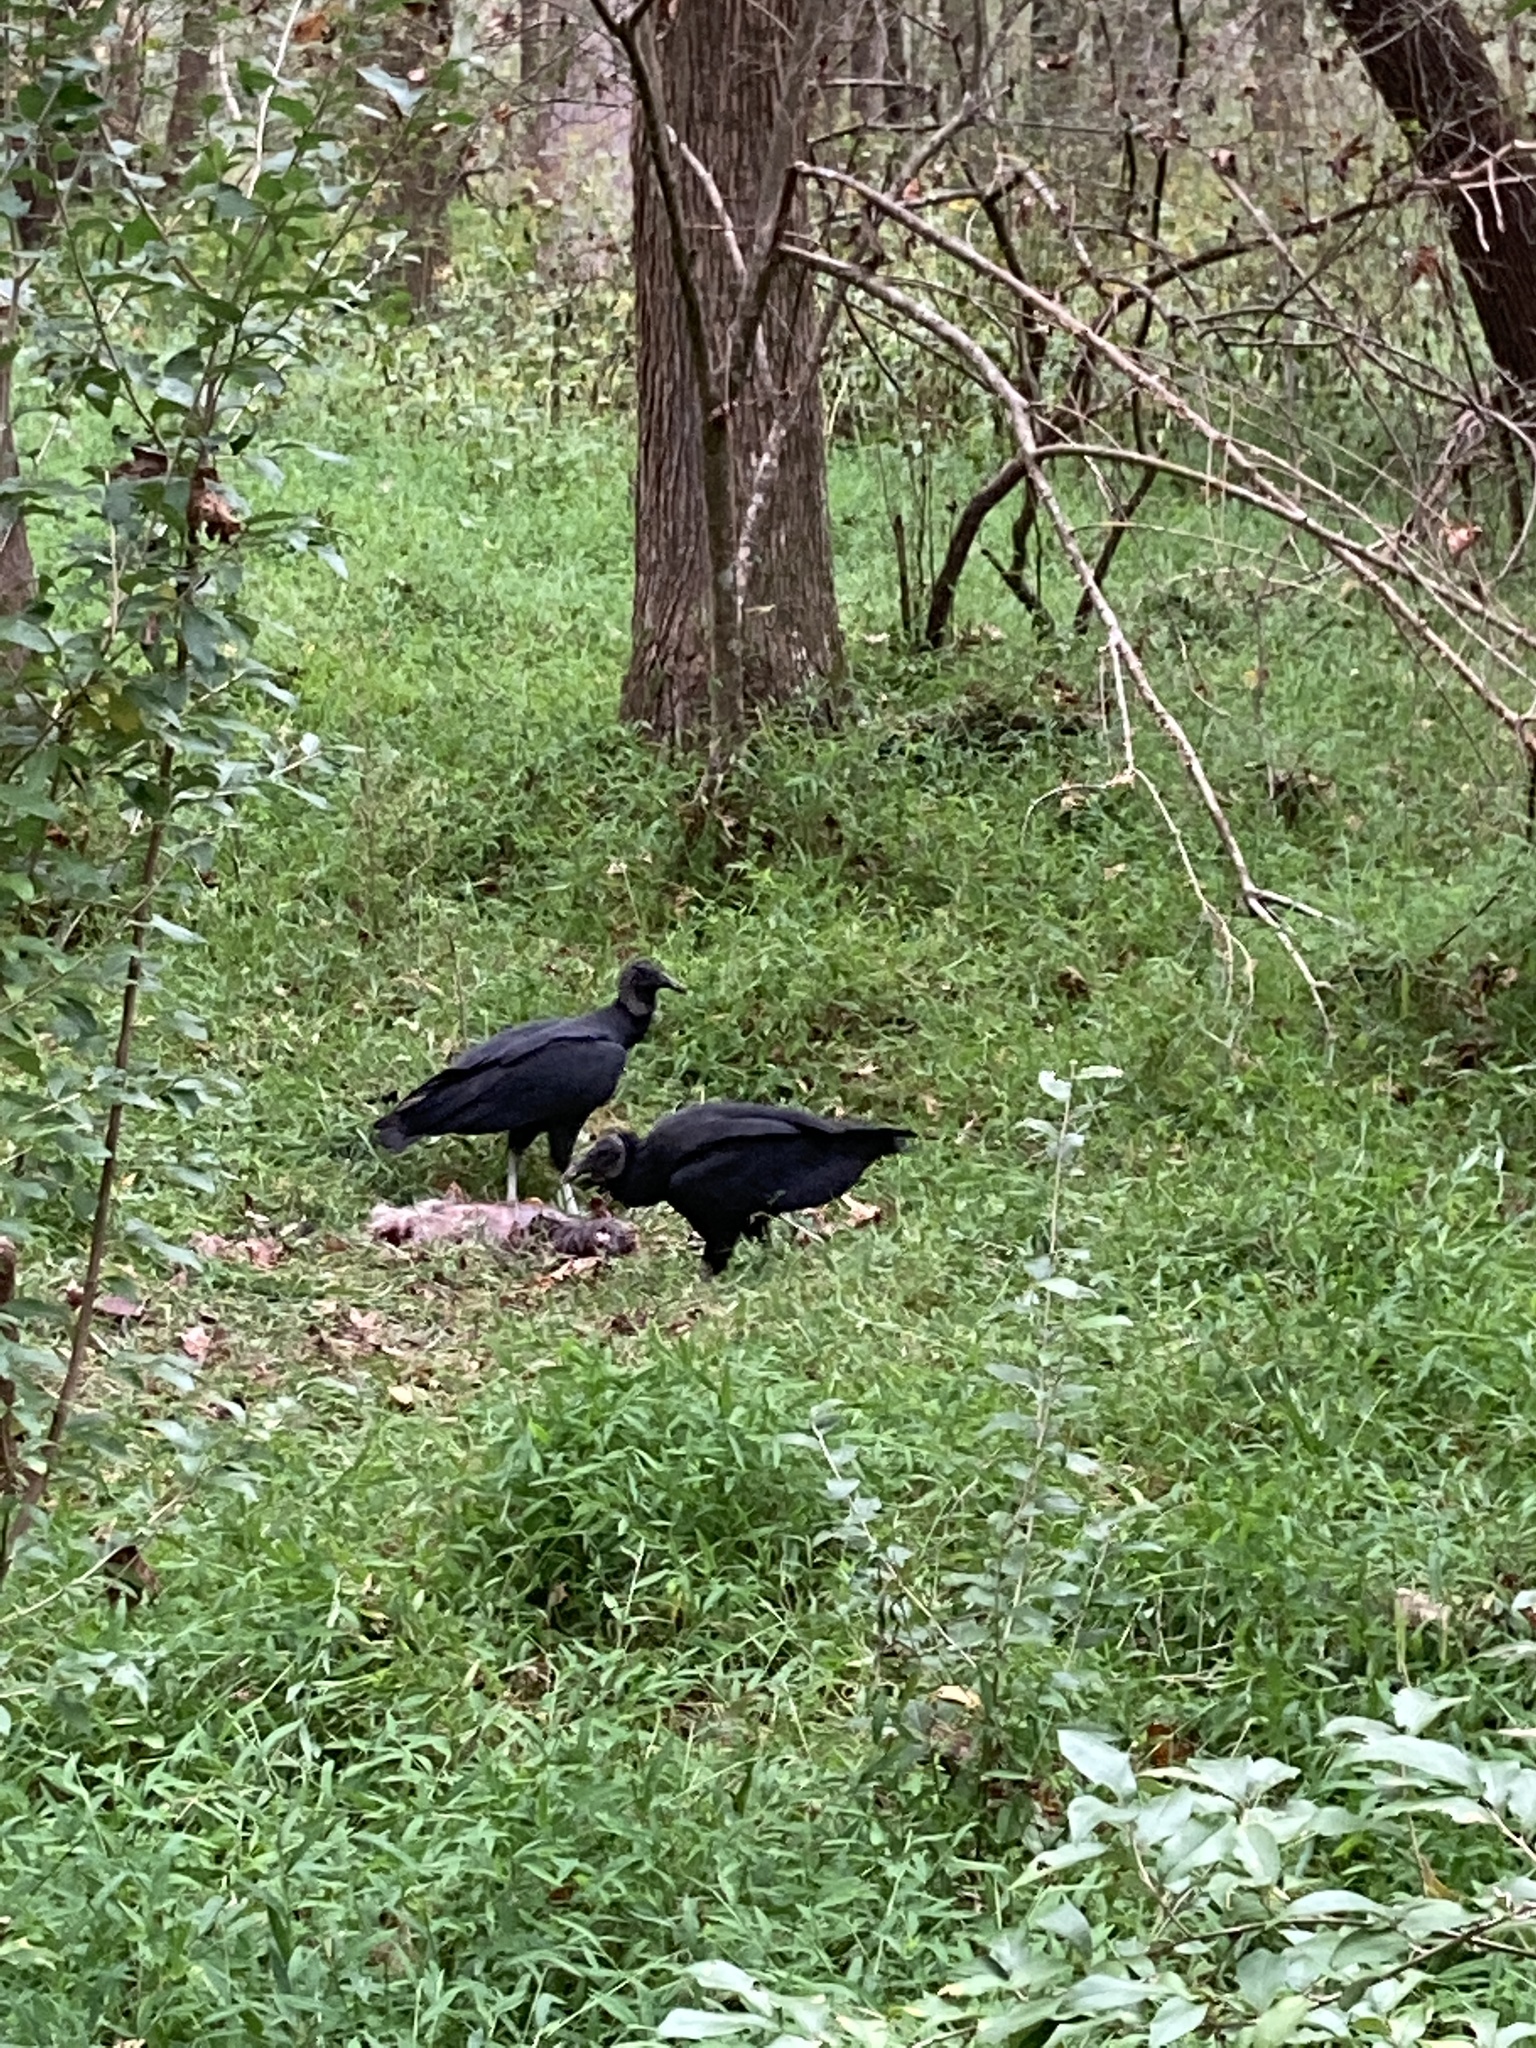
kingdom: Animalia
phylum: Chordata
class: Aves
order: Accipitriformes
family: Cathartidae
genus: Coragyps
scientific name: Coragyps atratus
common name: Black vulture
